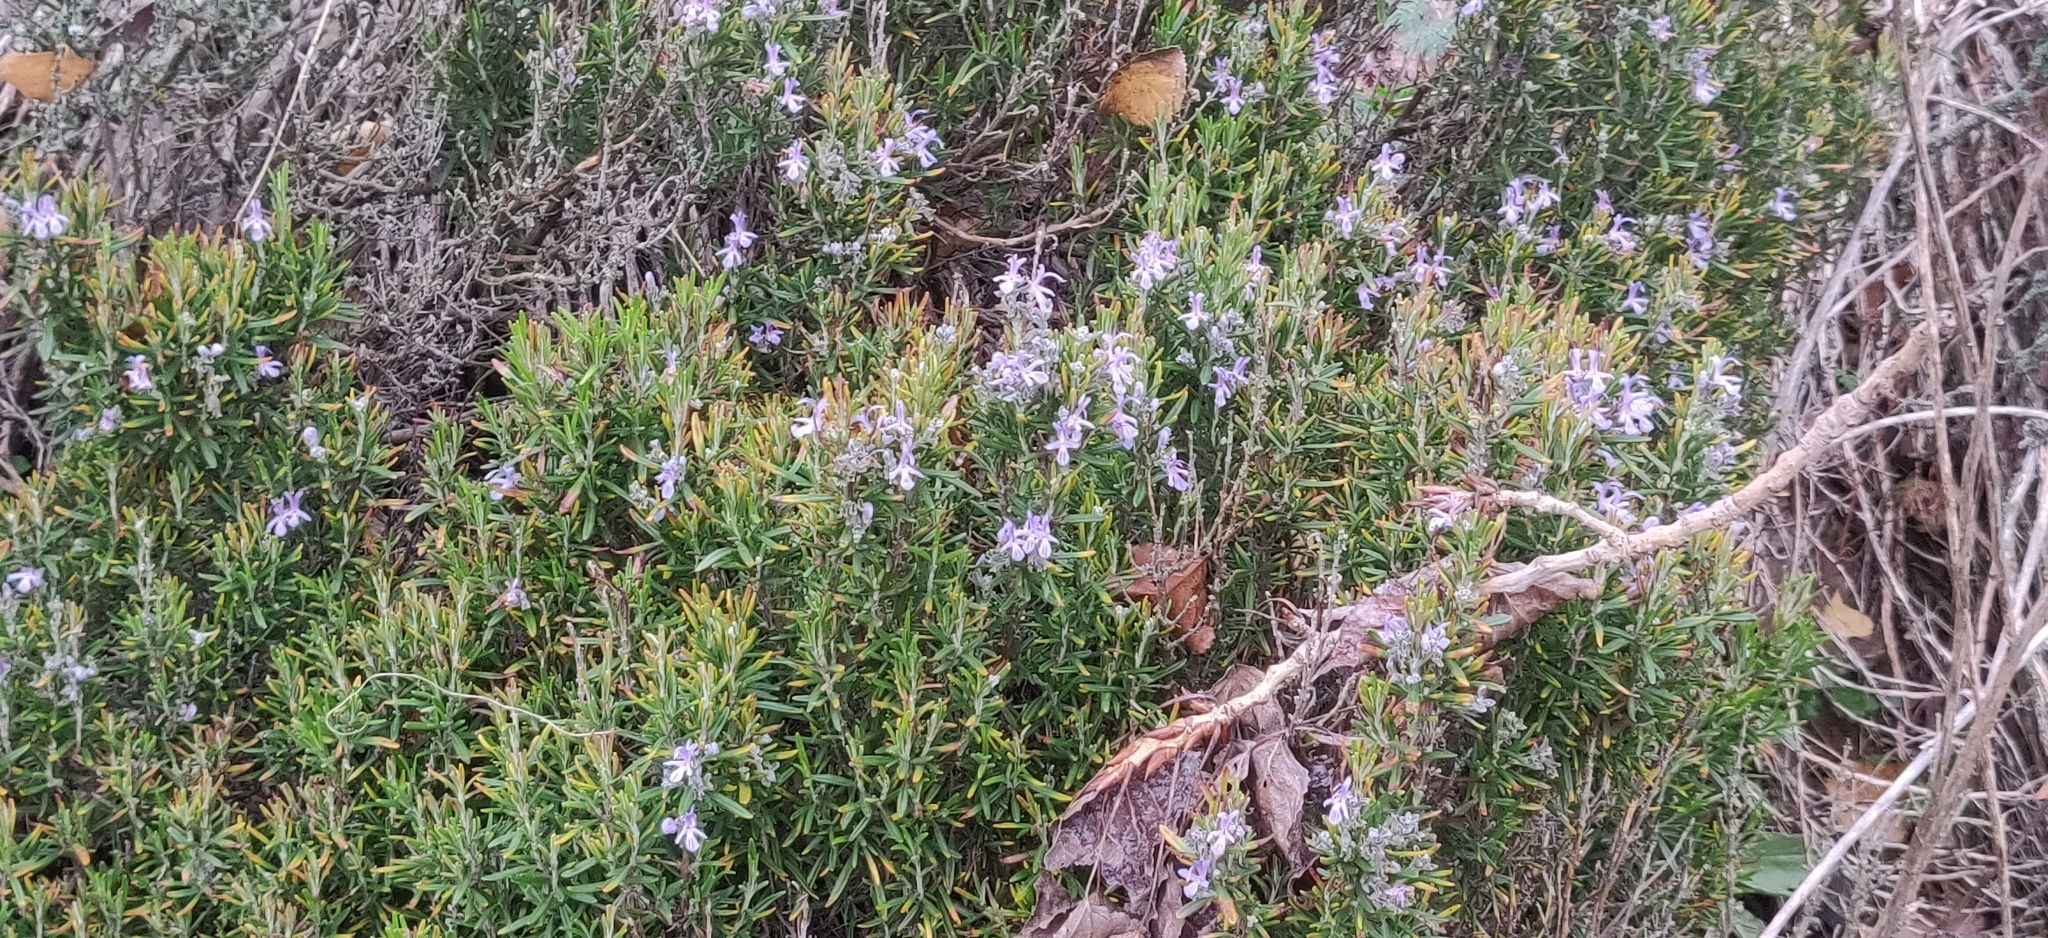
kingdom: Plantae
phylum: Tracheophyta
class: Magnoliopsida
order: Lamiales
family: Lamiaceae
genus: Salvia
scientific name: Salvia rosmarinus
